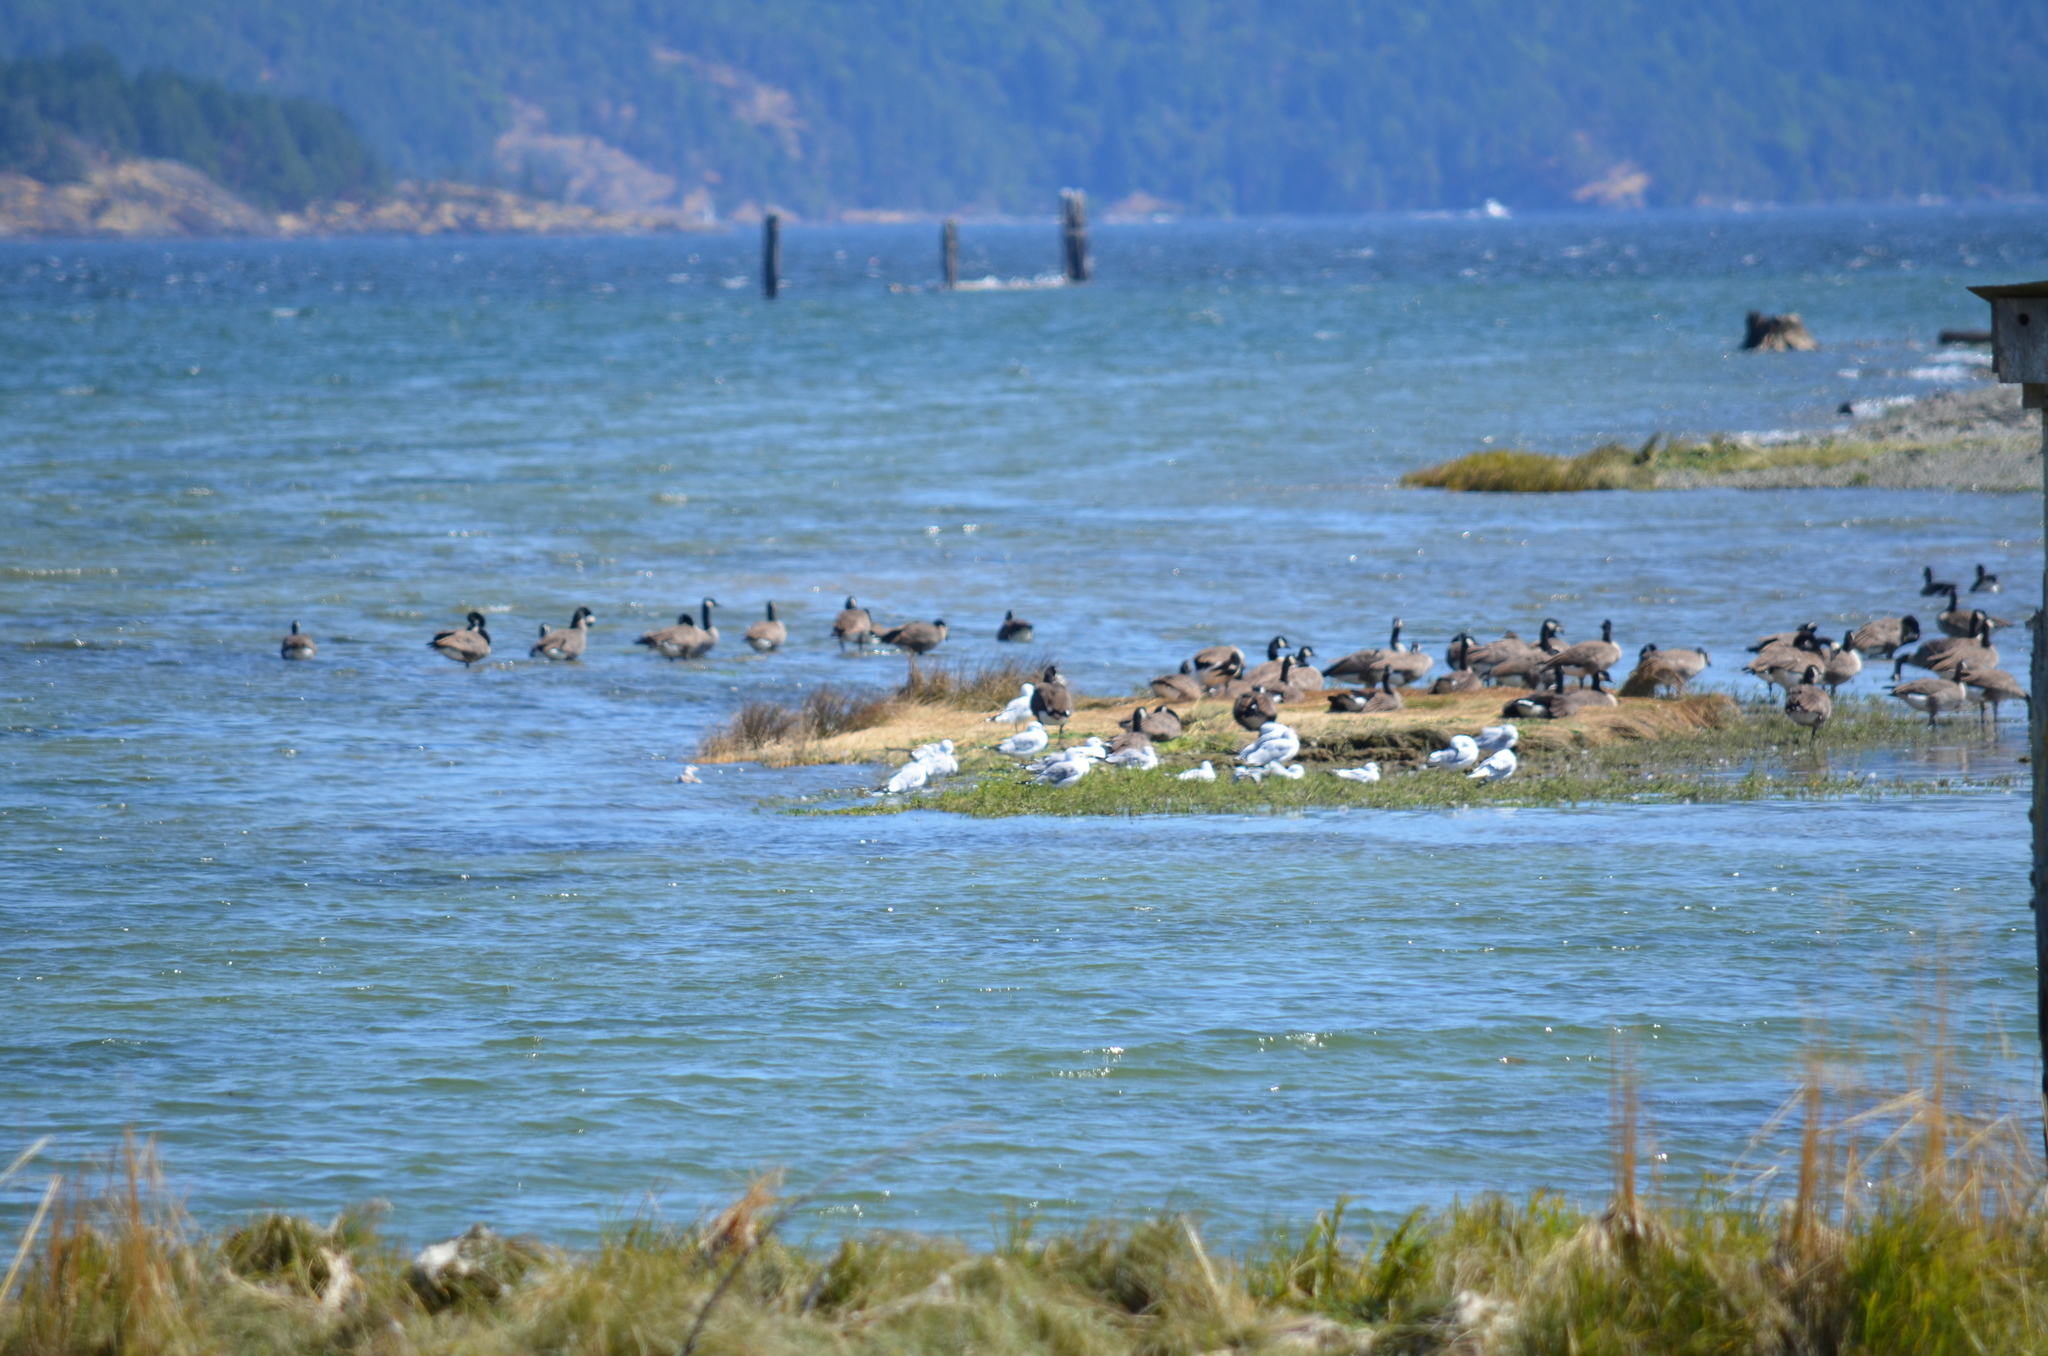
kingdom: Animalia
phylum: Chordata
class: Aves
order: Anseriformes
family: Anatidae
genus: Branta
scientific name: Branta canadensis
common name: Canada goose
